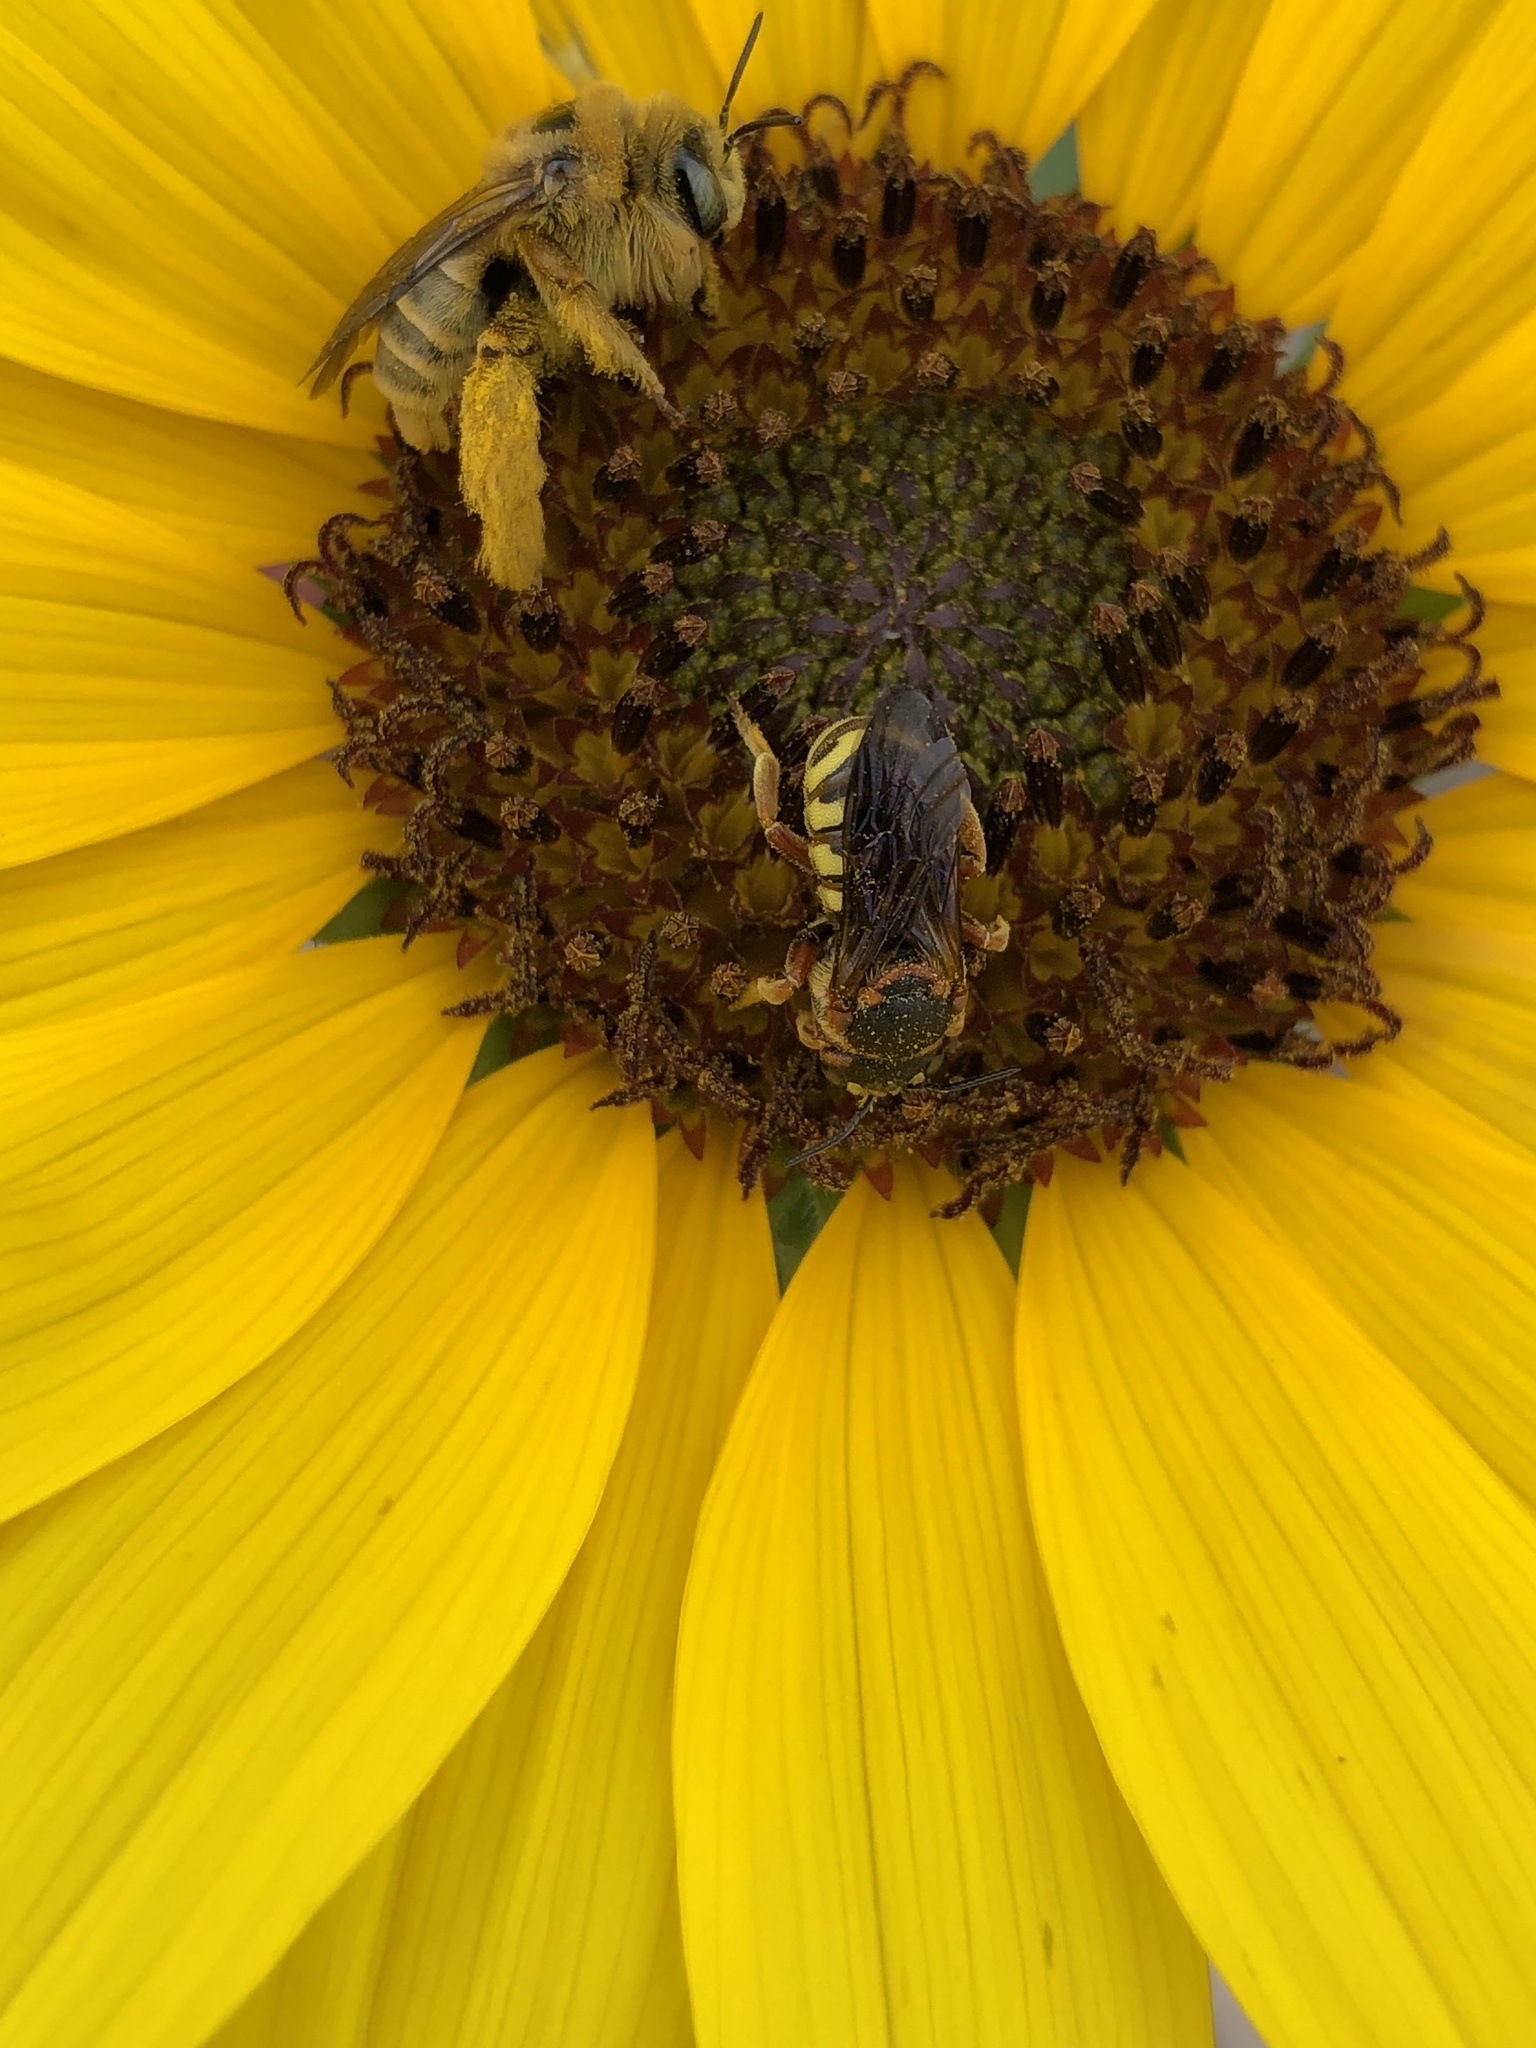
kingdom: Animalia
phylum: Arthropoda
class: Insecta
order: Hymenoptera
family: Apidae
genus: Diadasia
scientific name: Diadasia enavata
